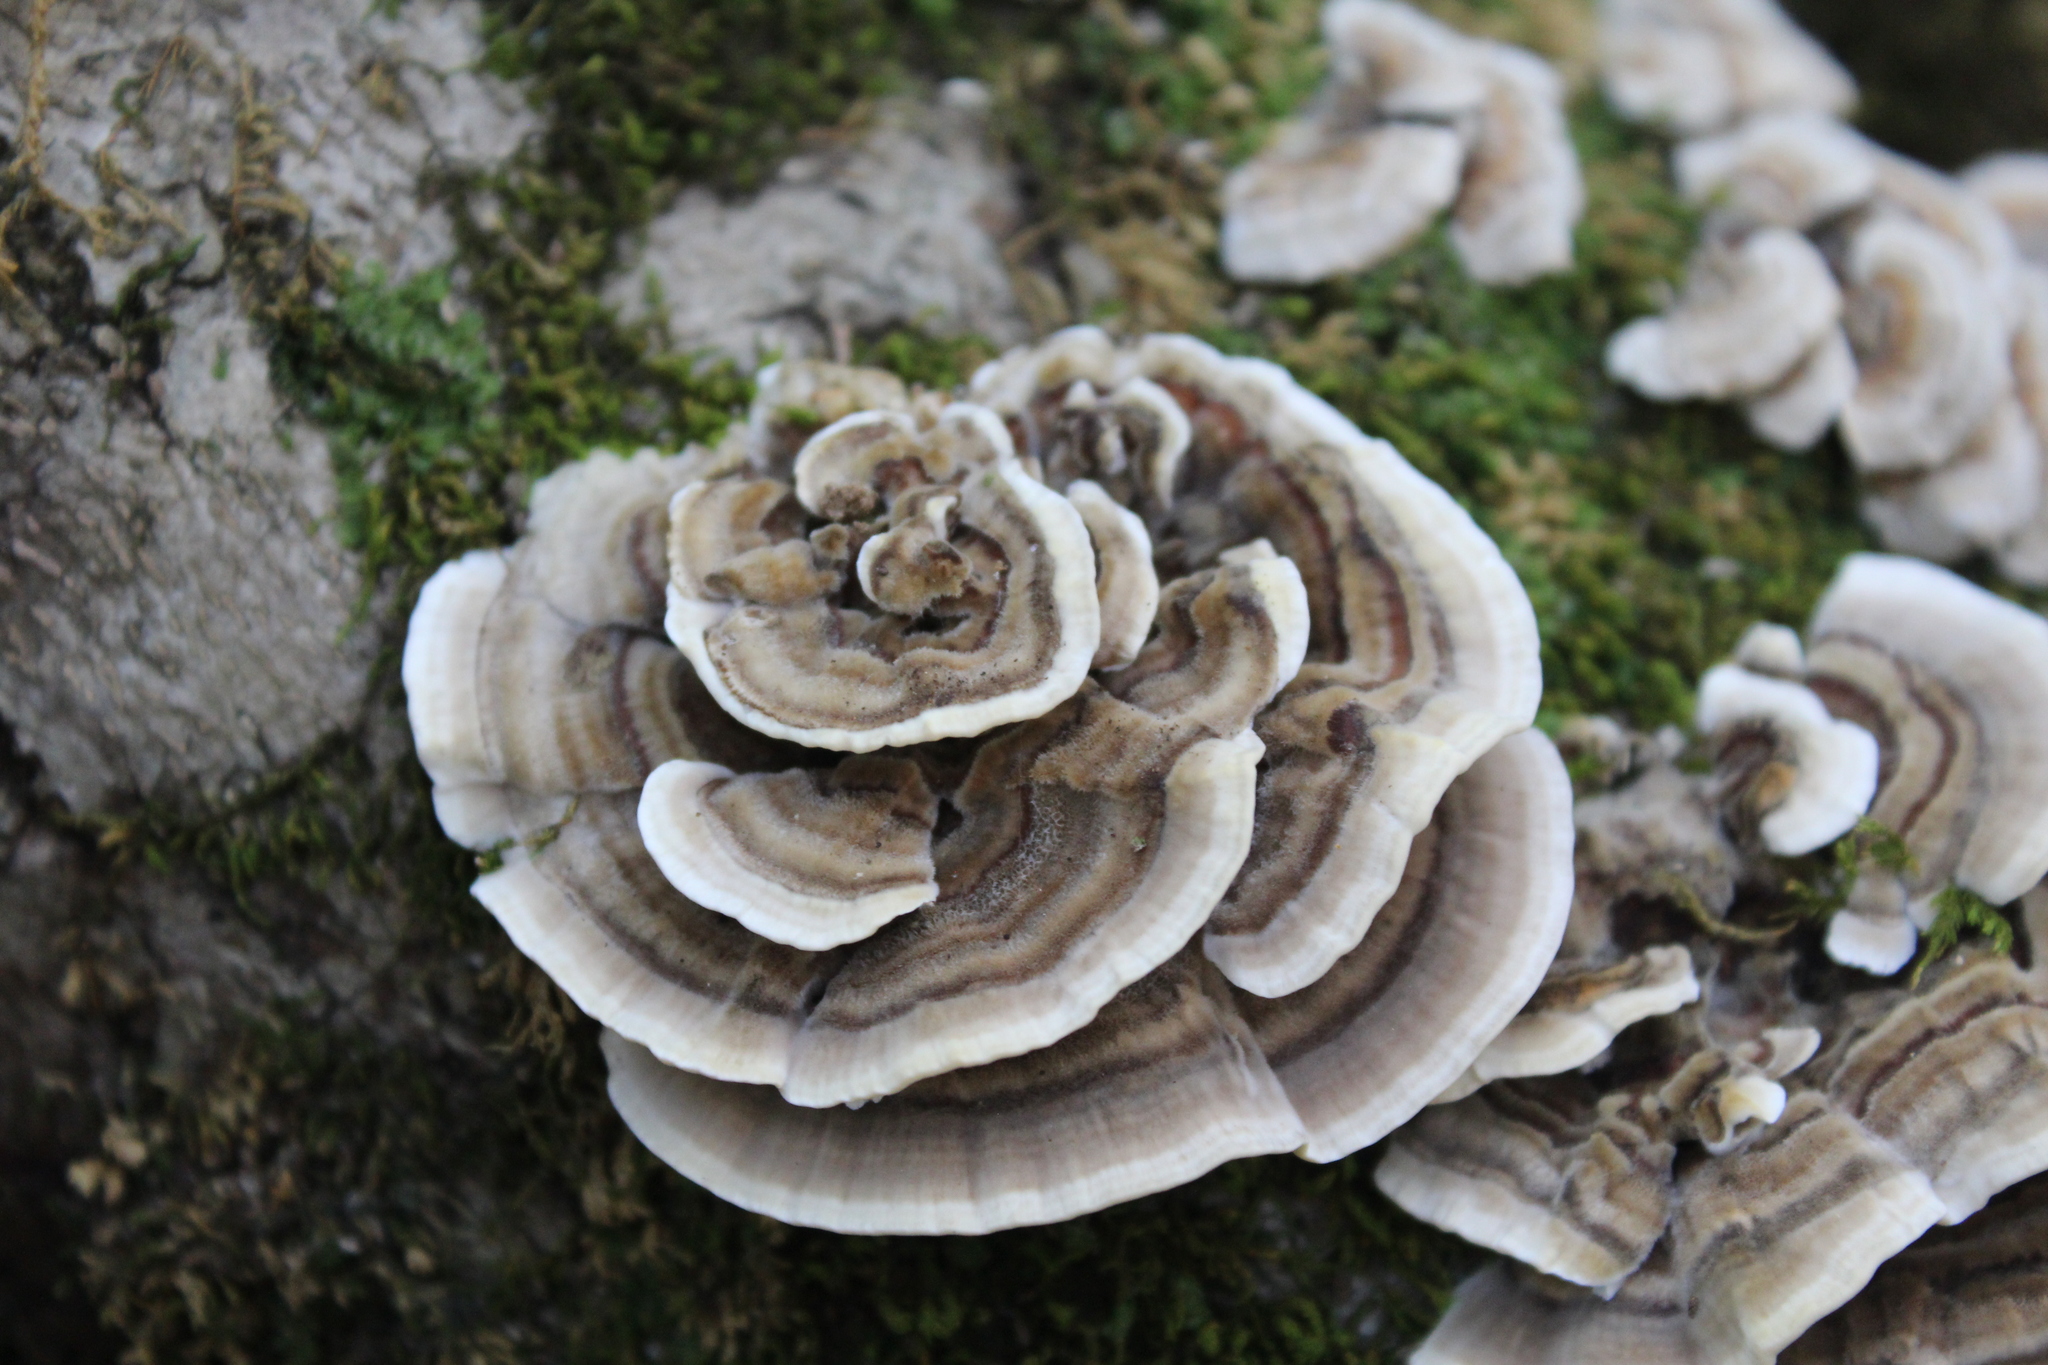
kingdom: Fungi
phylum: Basidiomycota
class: Agaricomycetes
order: Polyporales
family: Polyporaceae
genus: Trametes
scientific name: Trametes versicolor
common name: Turkeytail
